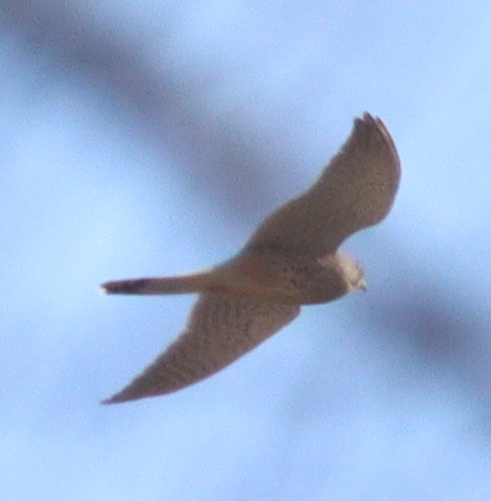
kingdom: Animalia
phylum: Chordata
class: Aves
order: Falconiformes
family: Falconidae
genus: Falco
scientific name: Falco tinnunculus
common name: Common kestrel
